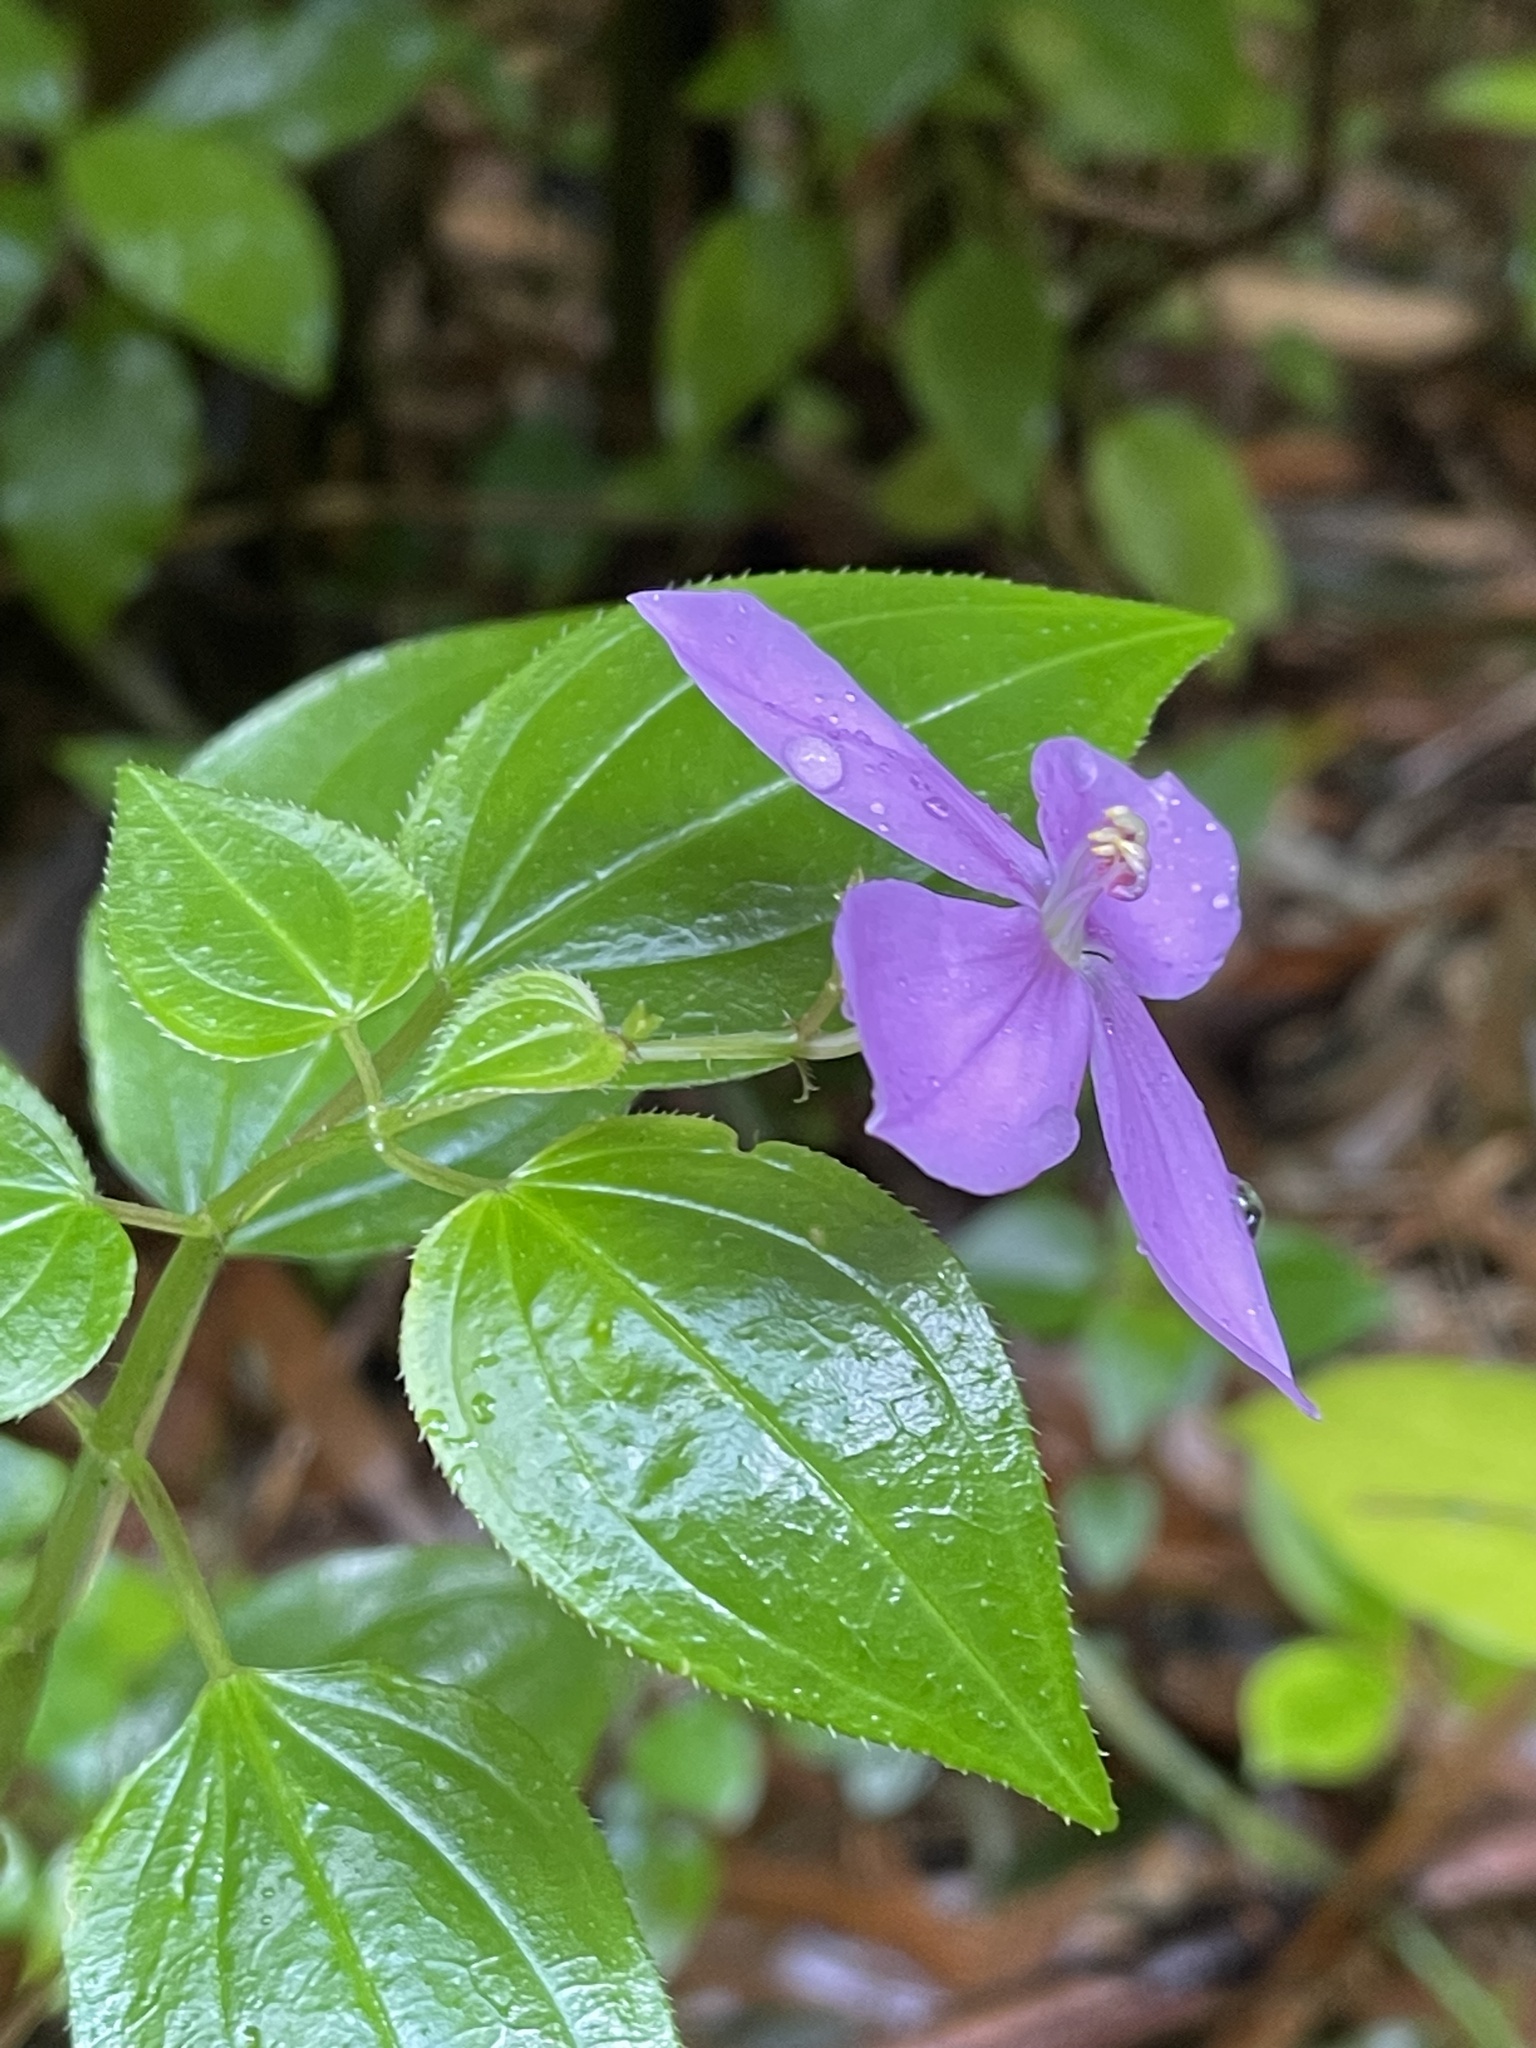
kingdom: Plantae
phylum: Tracheophyta
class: Magnoliopsida
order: Myrtales
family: Melastomataceae
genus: Arthrostemma
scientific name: Arthrostemma ciliatum
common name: Everblooming eavender
